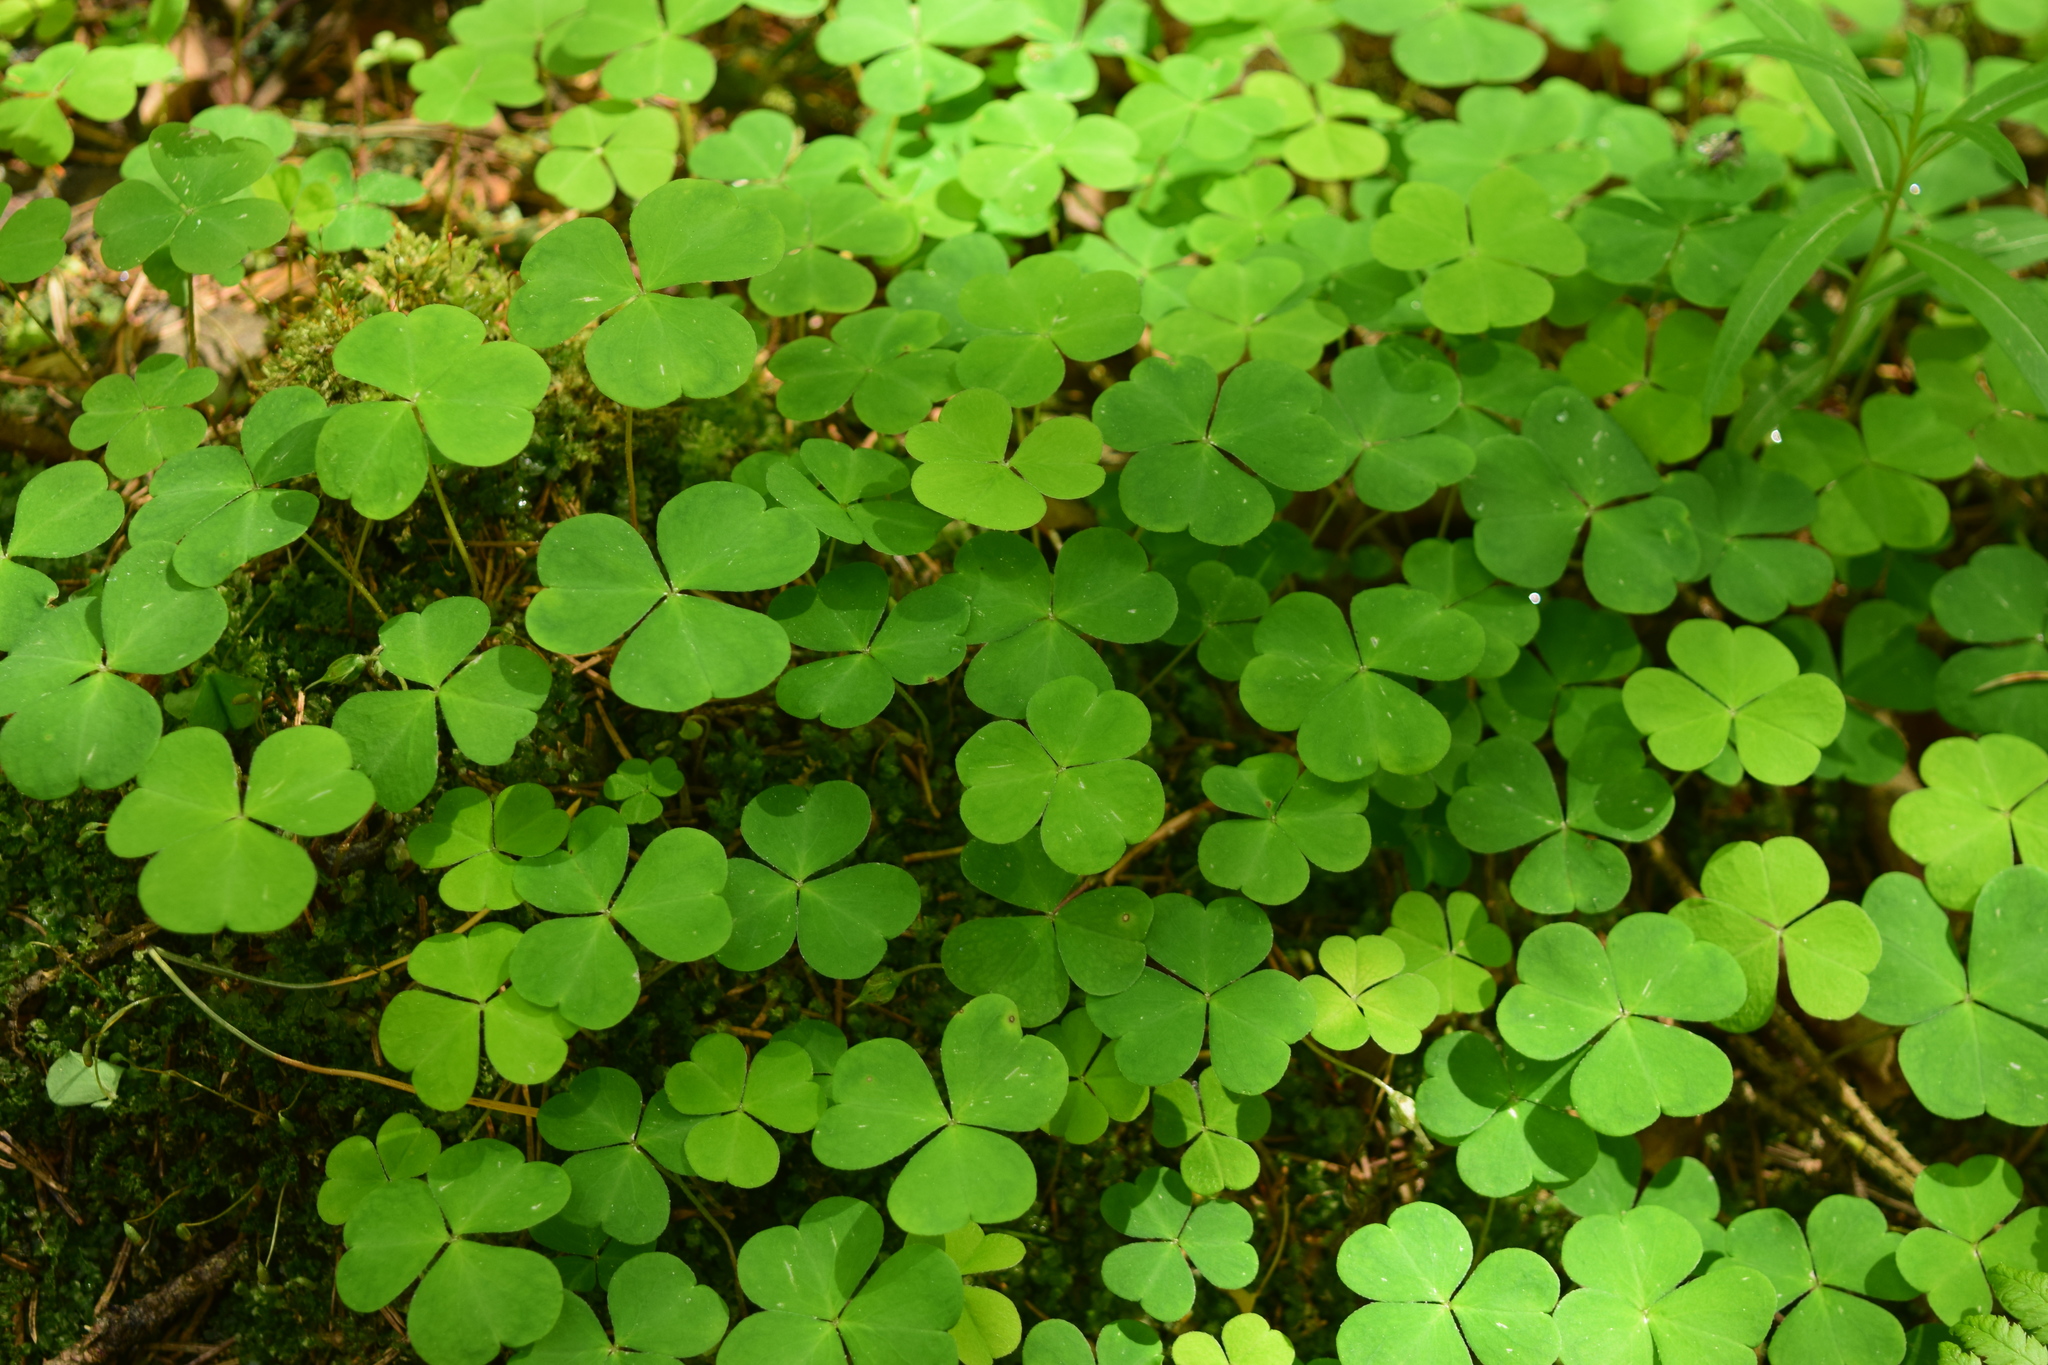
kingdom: Plantae
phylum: Tracheophyta
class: Magnoliopsida
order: Oxalidales
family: Oxalidaceae
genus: Oxalis
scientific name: Oxalis acetosella
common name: Wood-sorrel
